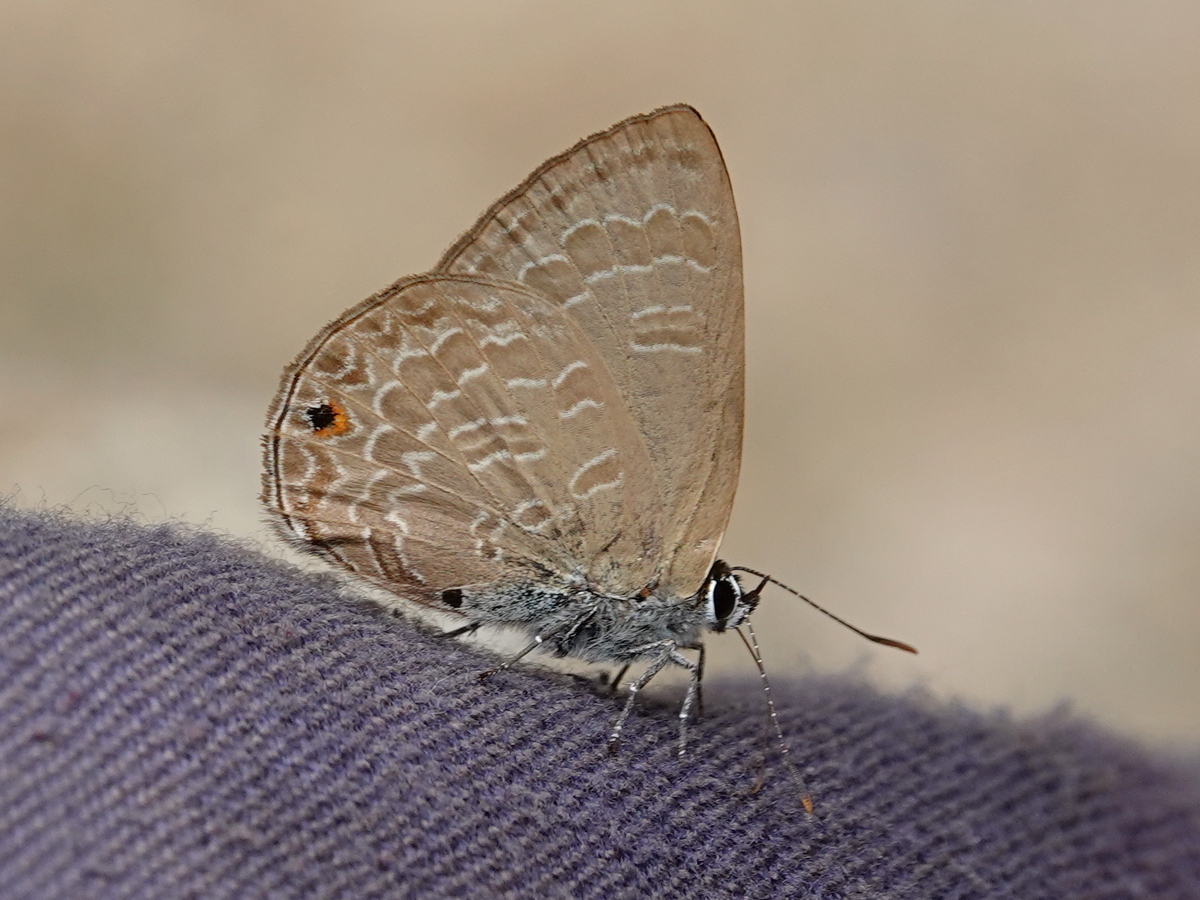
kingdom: Animalia
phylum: Arthropoda
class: Insecta
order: Lepidoptera
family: Lycaenidae
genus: Anthene
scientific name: Anthene emolus
